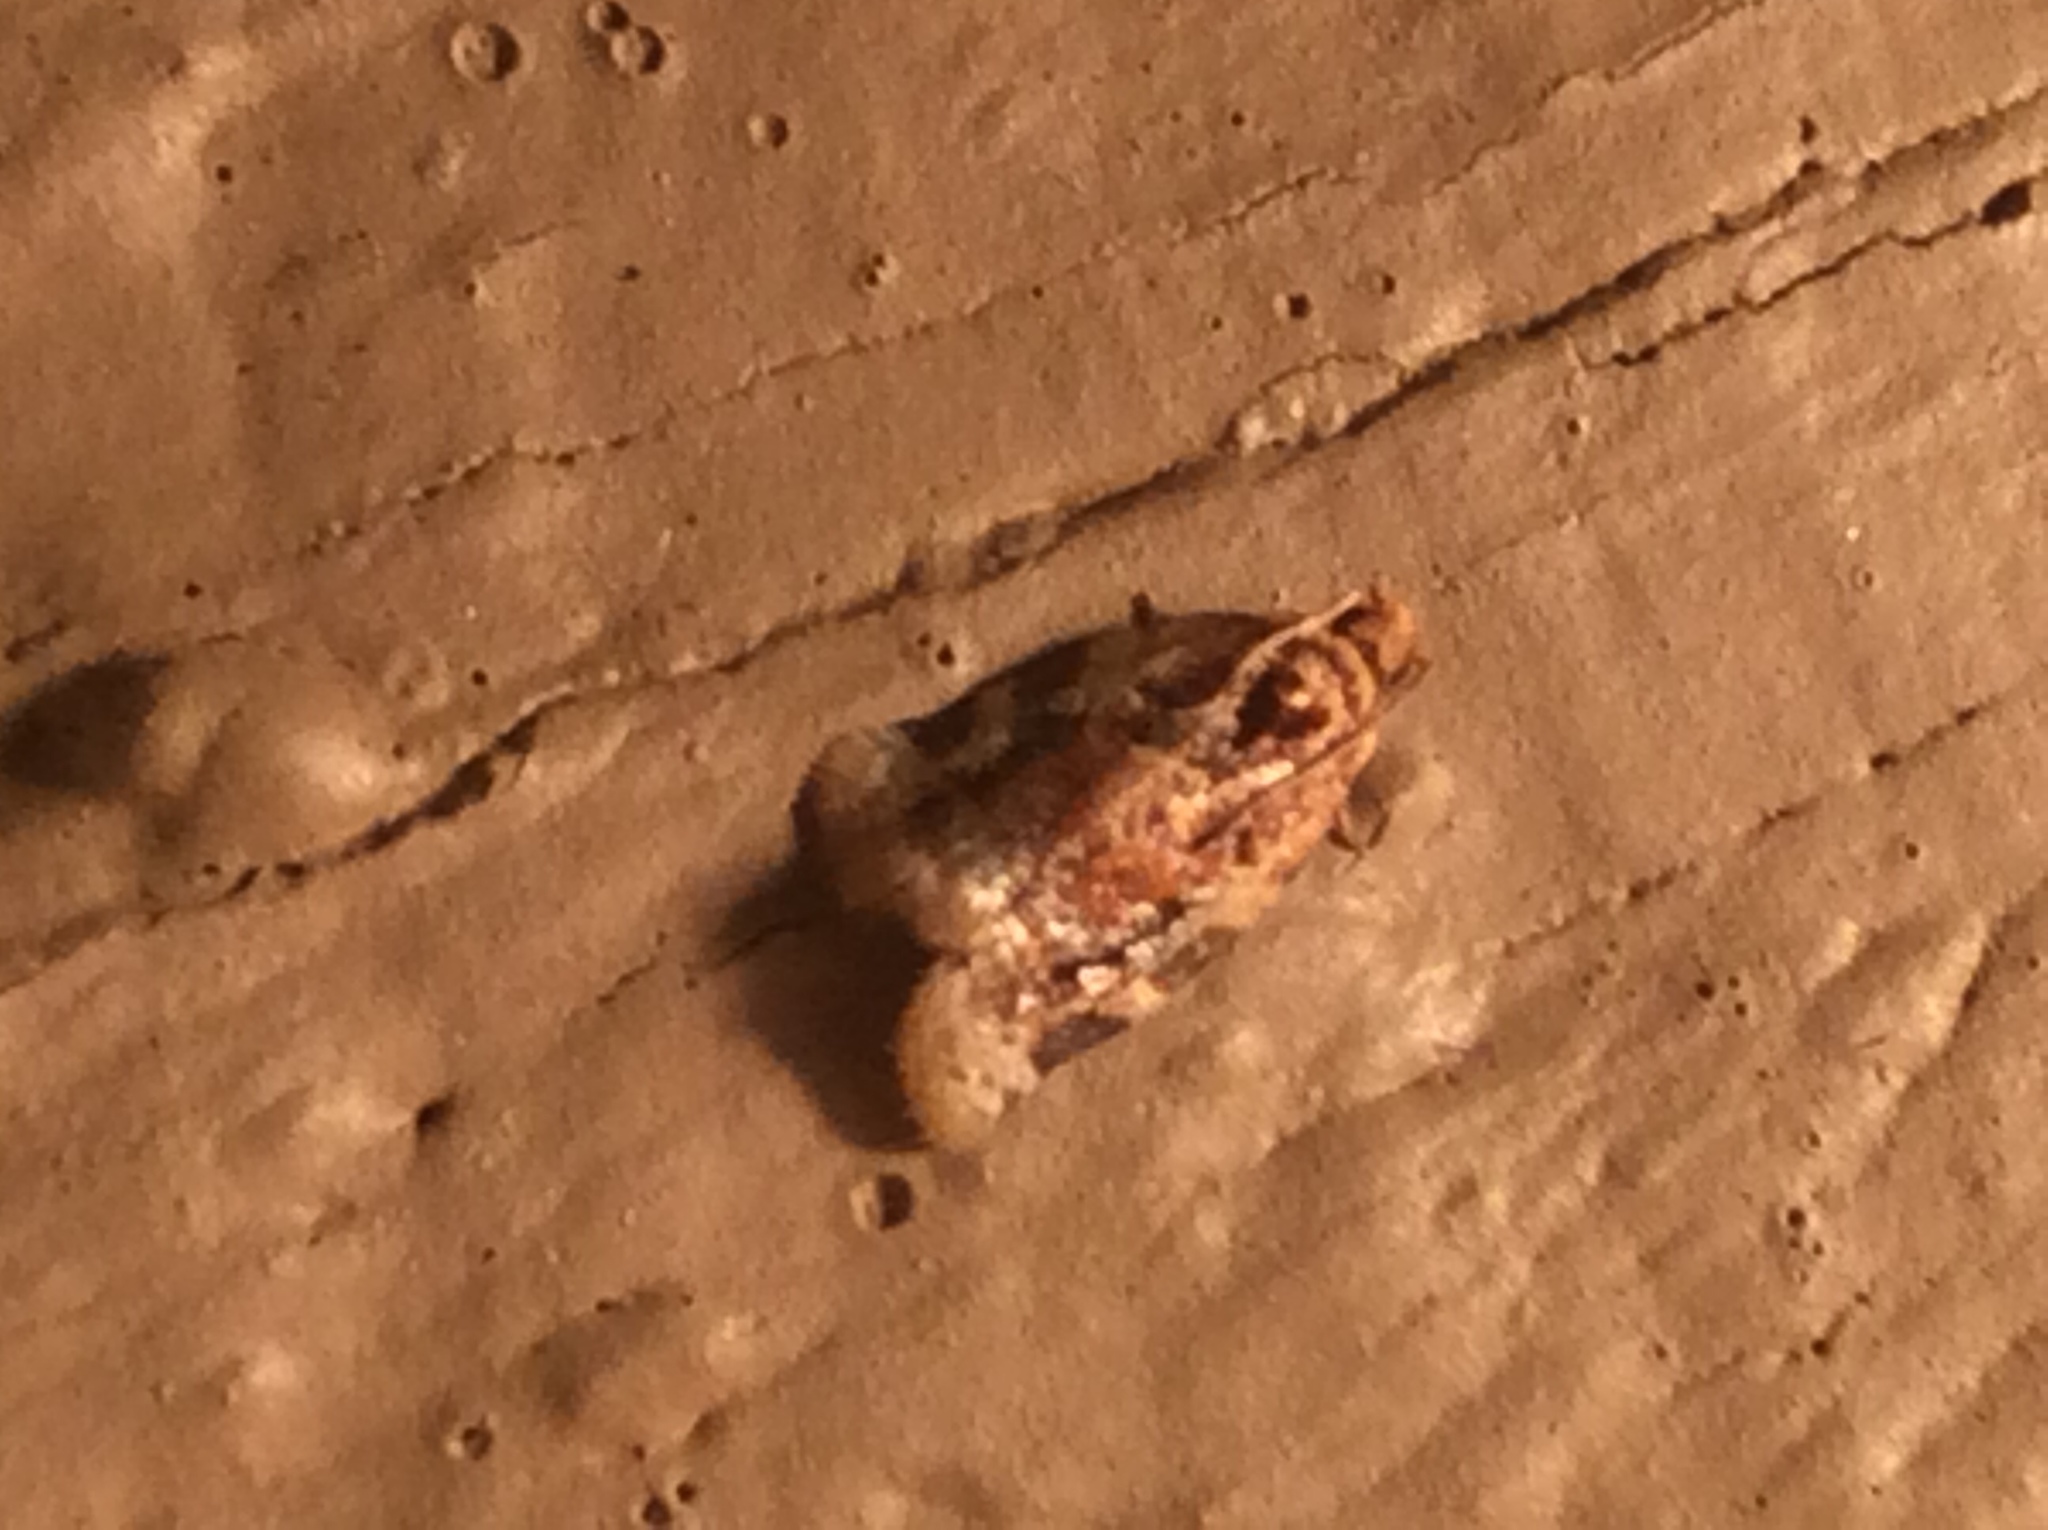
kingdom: Animalia
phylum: Arthropoda
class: Insecta
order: Lepidoptera
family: Tortricidae
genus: Argyrotaenia
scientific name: Argyrotaenia velutinana
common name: Red-banded leafroller moth
